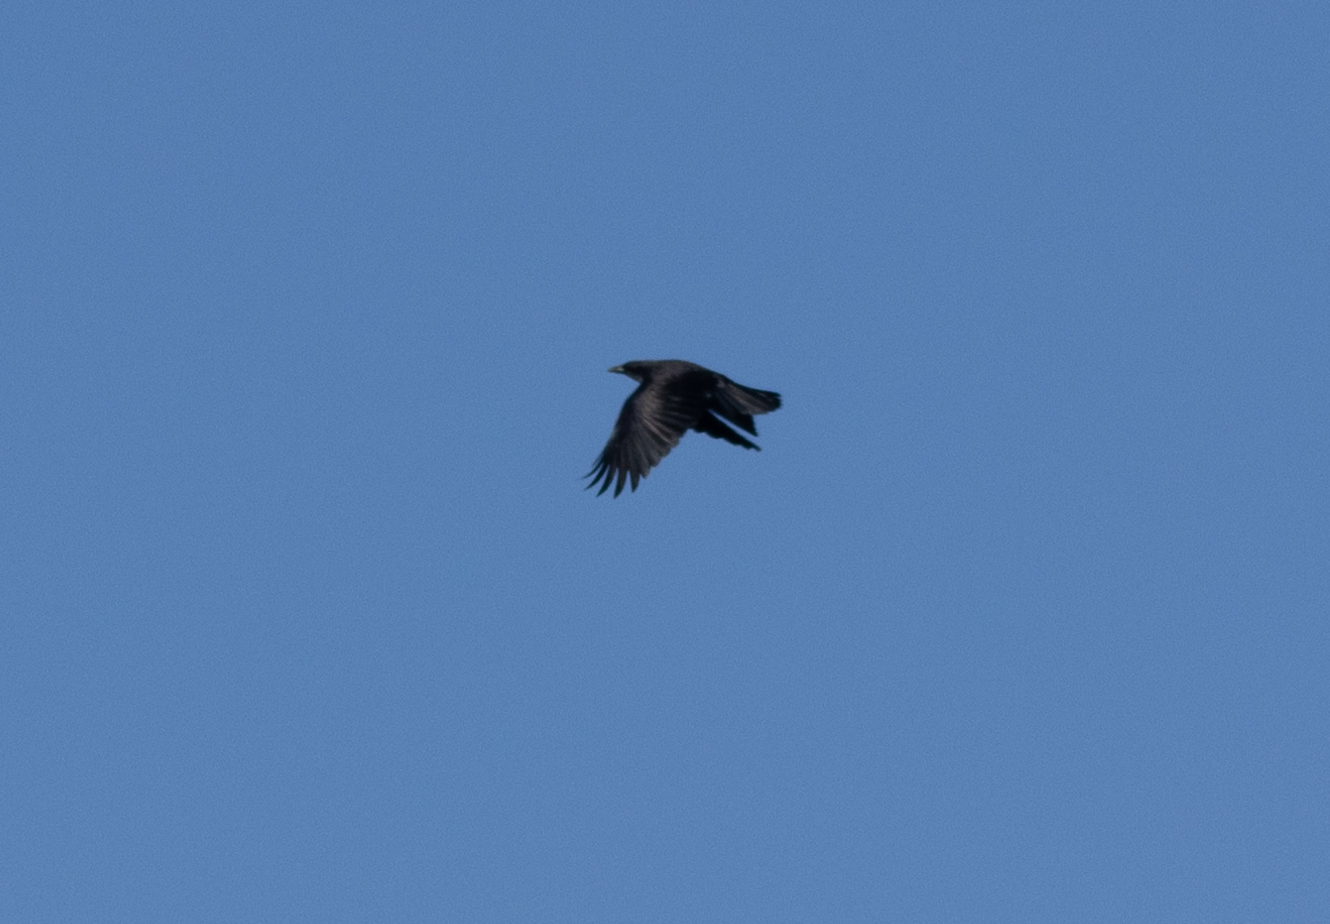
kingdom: Animalia
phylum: Chordata
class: Aves
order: Passeriformes
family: Corvidae
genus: Corvus
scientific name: Corvus brachyrhynchos
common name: American crow
